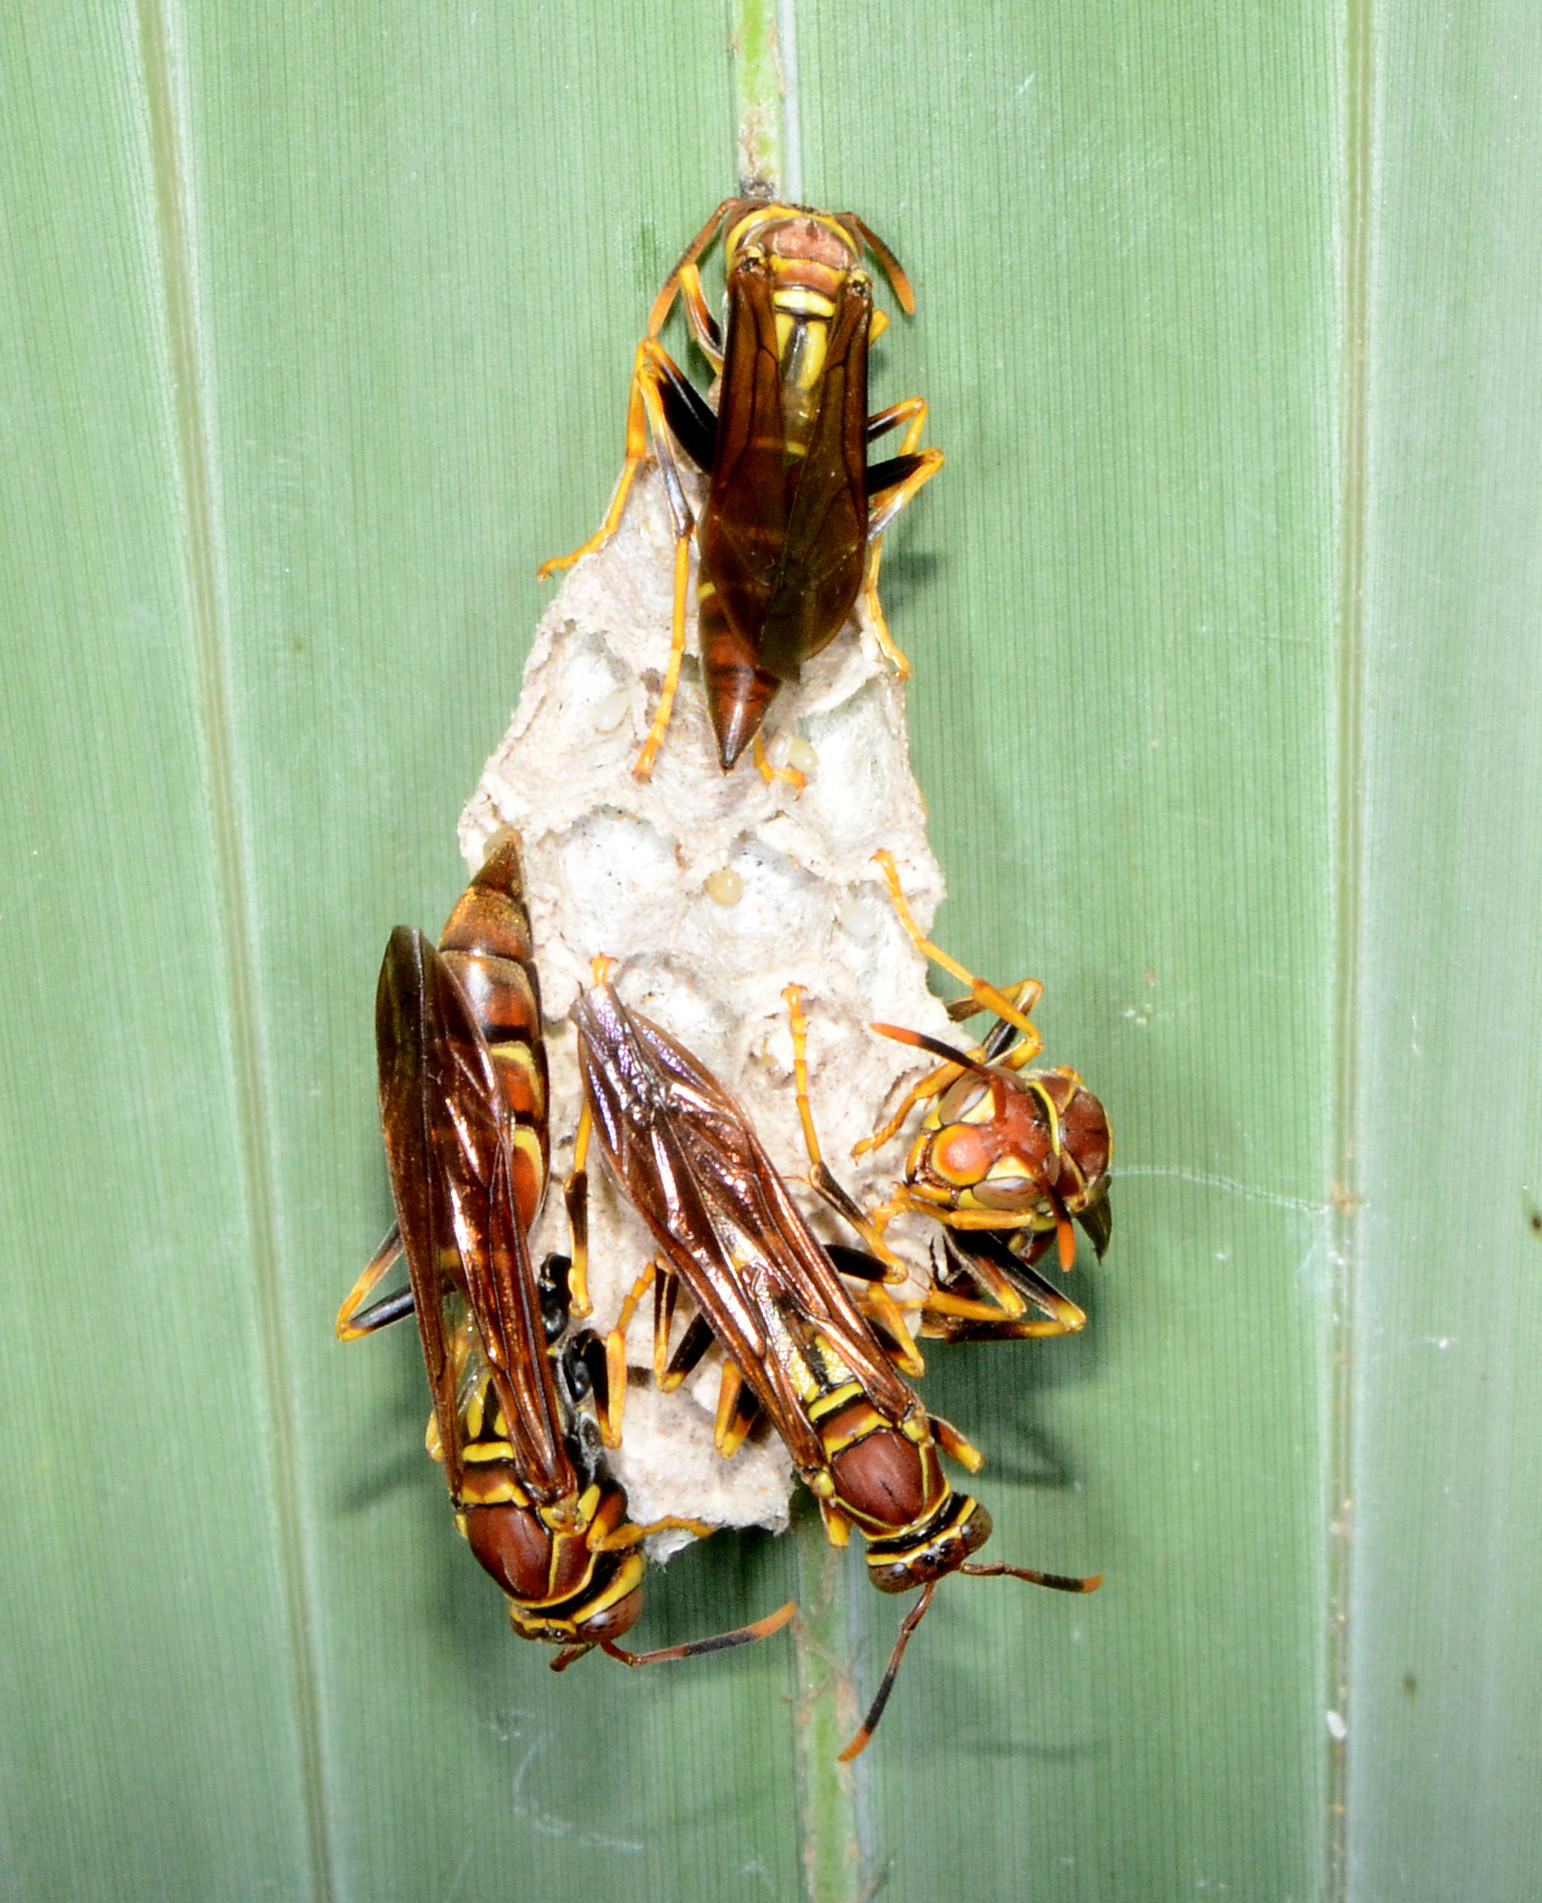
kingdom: Animalia
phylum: Arthropoda
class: Insecta
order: Hymenoptera
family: Eumenidae
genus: Polistes
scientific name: Polistes instabilis
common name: Unstable paper wasp
